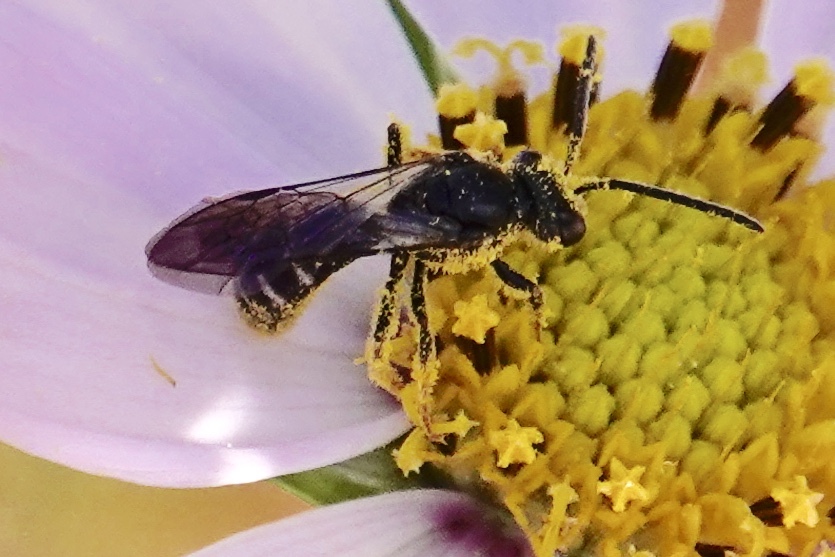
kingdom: Animalia
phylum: Arthropoda
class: Insecta
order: Hymenoptera
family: Halictidae
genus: Lasioglossum
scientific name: Lasioglossum fuscipenne
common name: Brown-winged sweat bee
